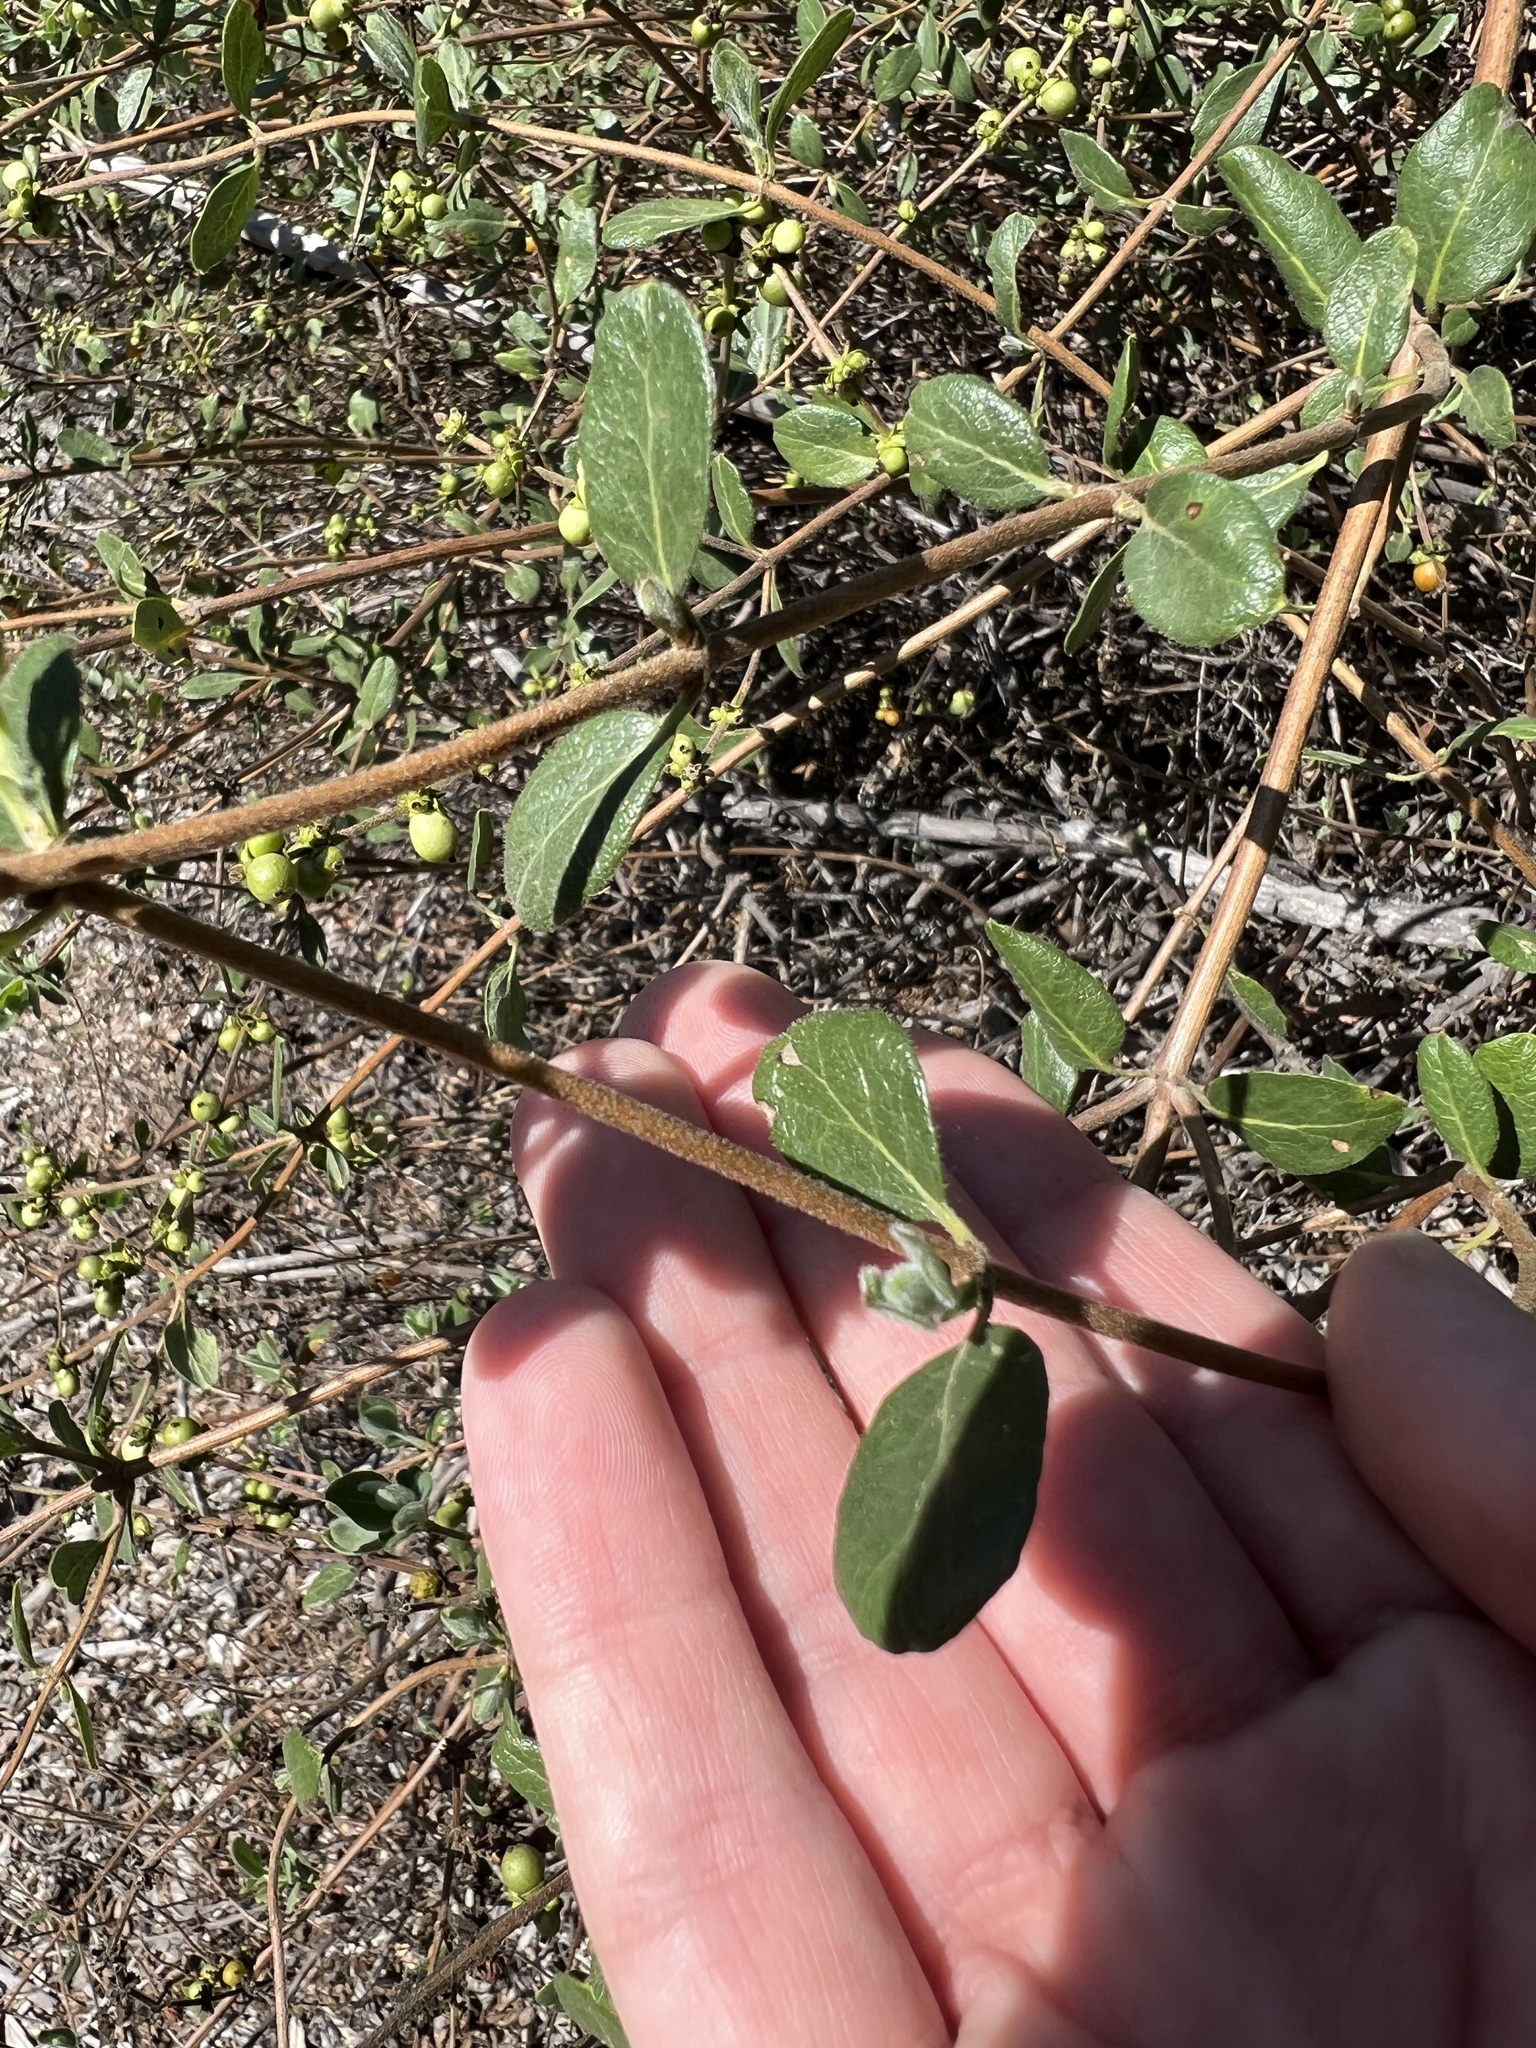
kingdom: Plantae
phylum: Tracheophyta
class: Magnoliopsida
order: Dipsacales
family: Caprifoliaceae
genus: Lonicera
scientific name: Lonicera subspicata
